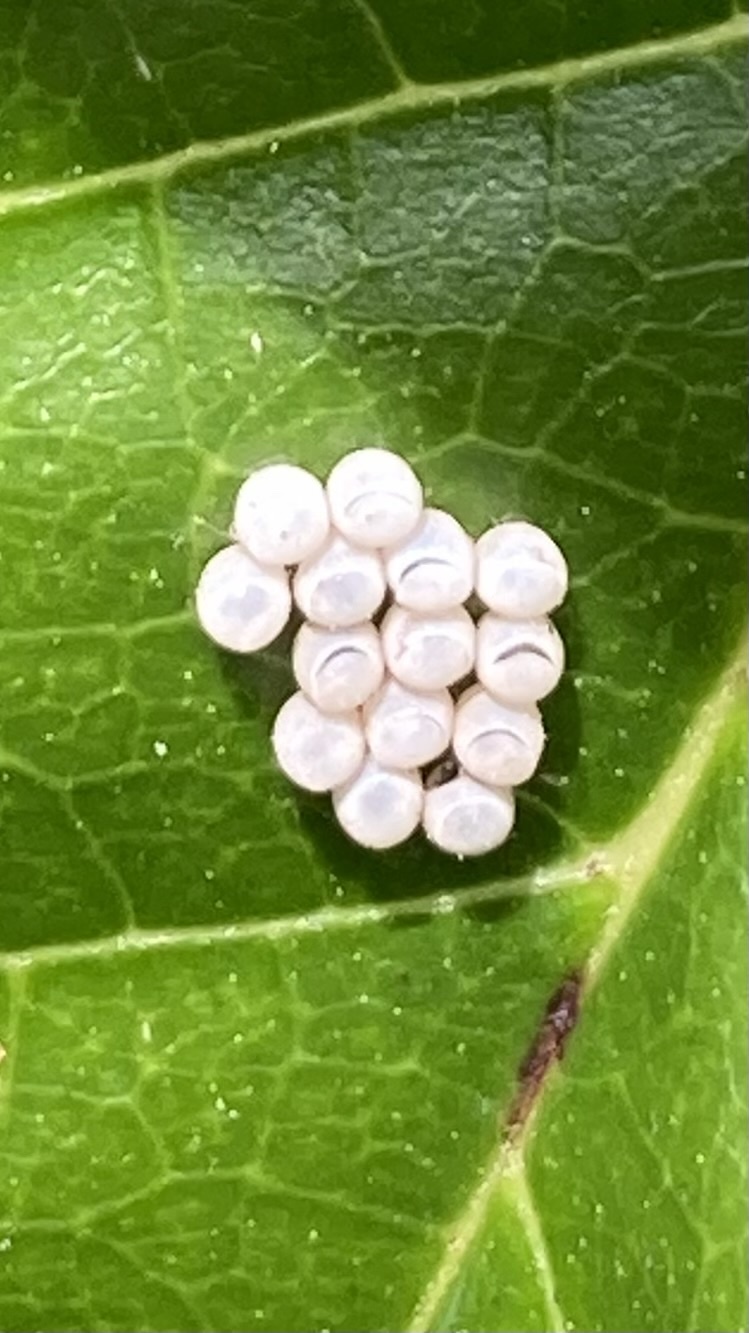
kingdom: Animalia
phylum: Arthropoda
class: Insecta
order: Hemiptera
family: Pentatomidae
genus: Glaucias
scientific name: Glaucias amyota
